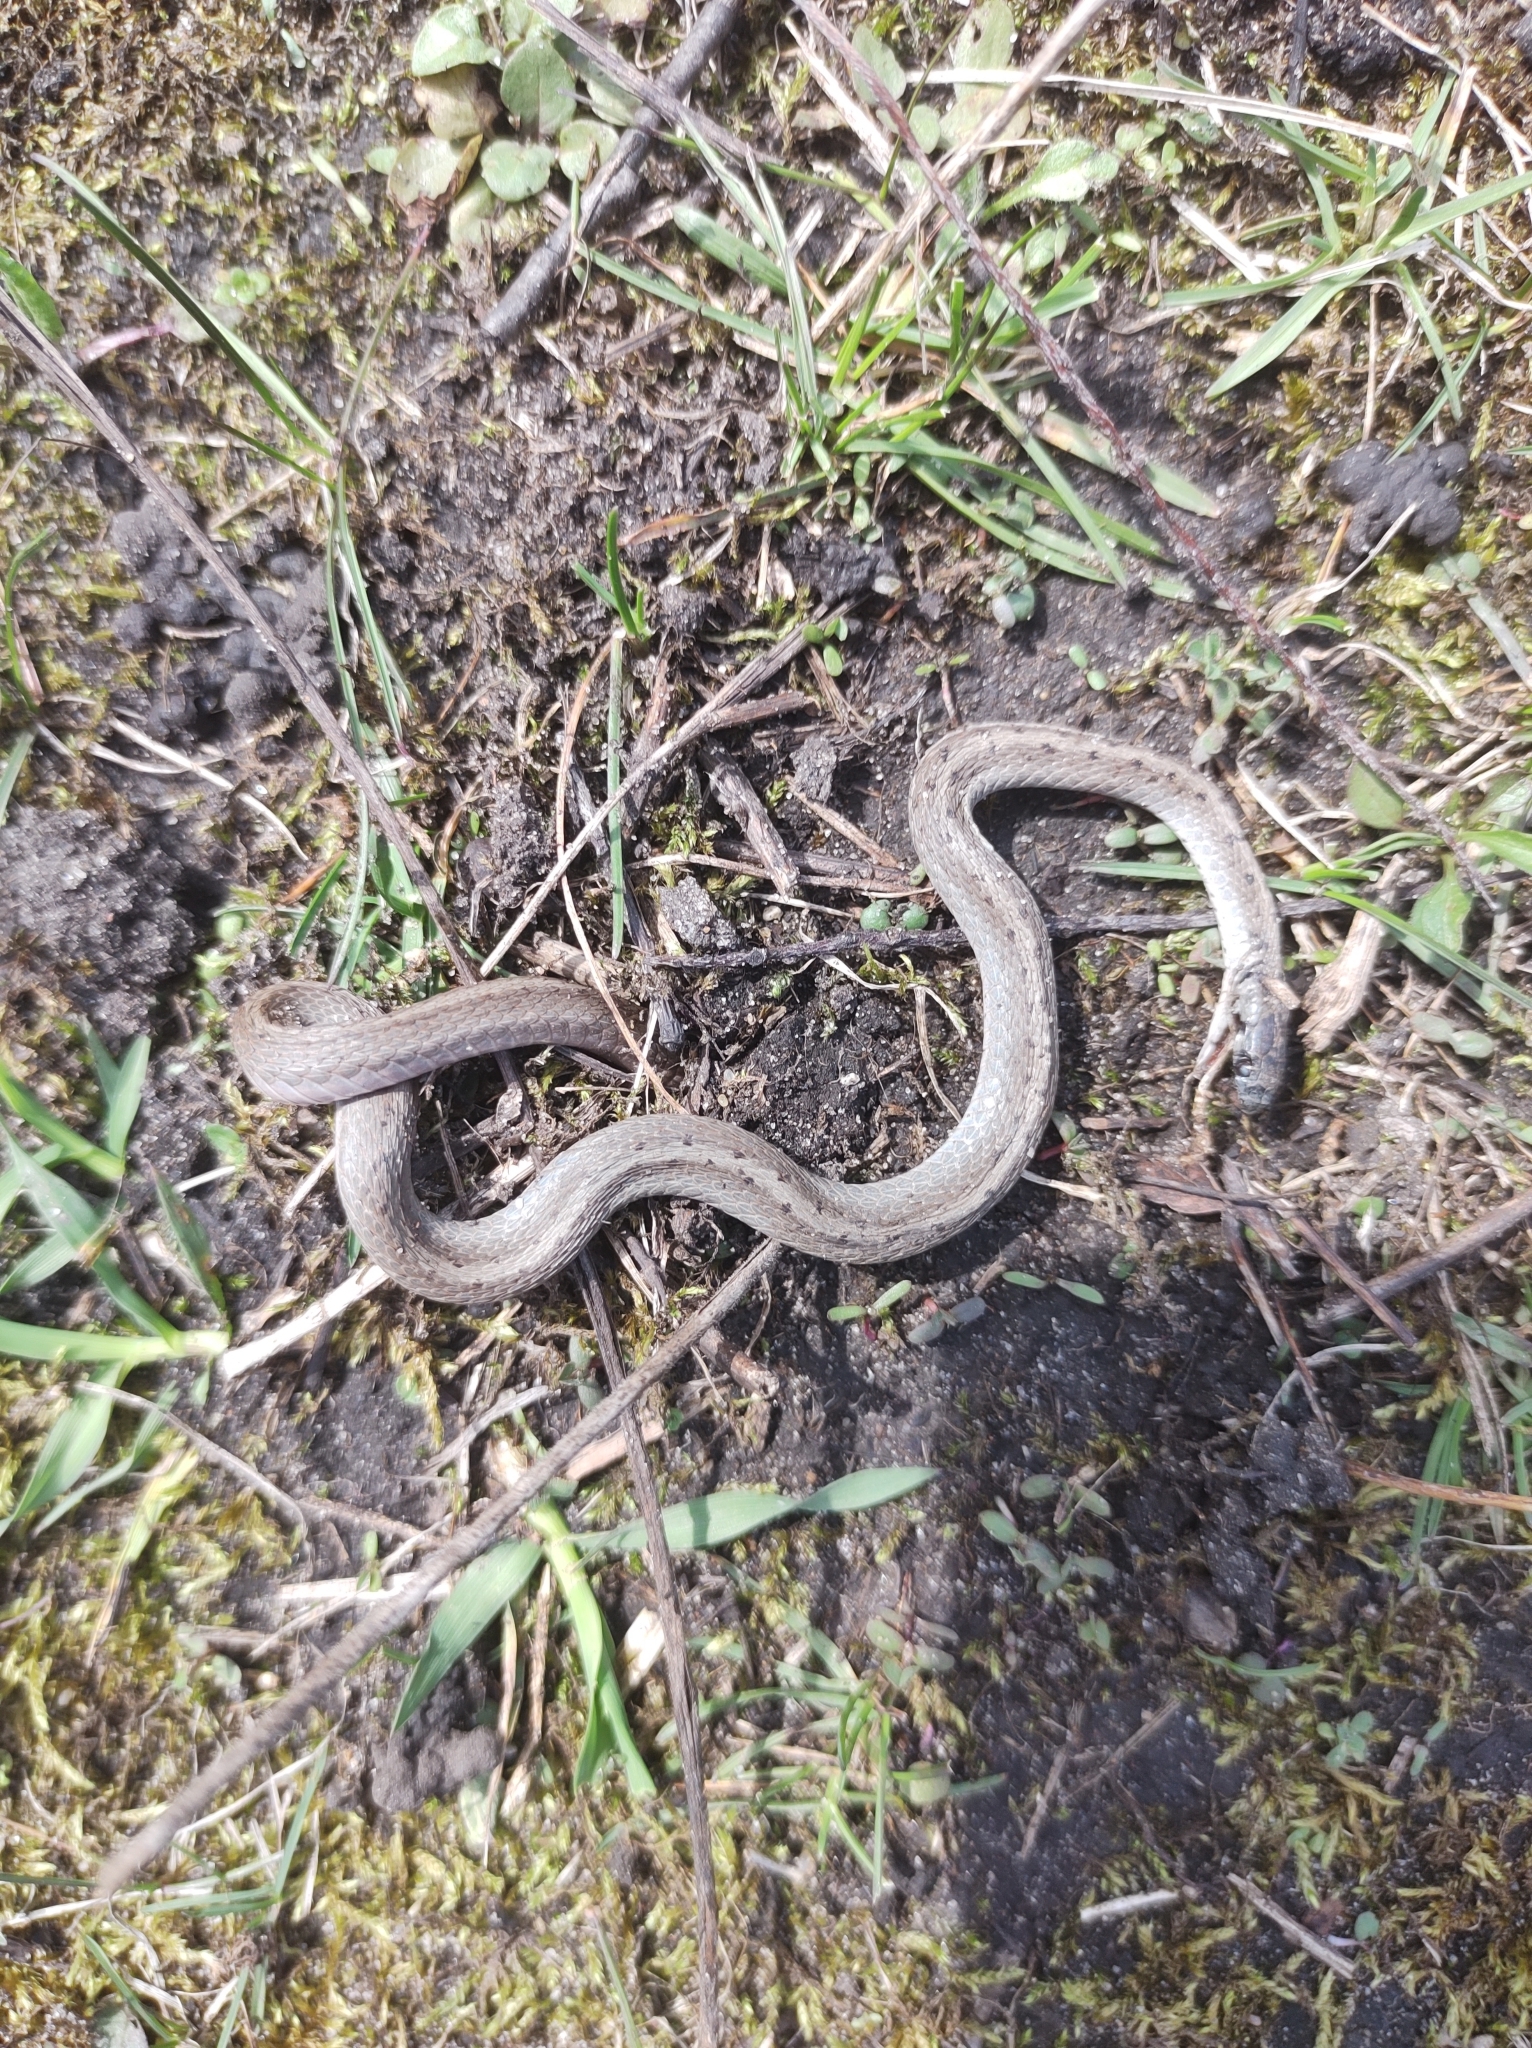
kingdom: Animalia
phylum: Chordata
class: Squamata
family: Colubridae
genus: Storeria
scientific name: Storeria dekayi
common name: (dekay’s) brown snake
